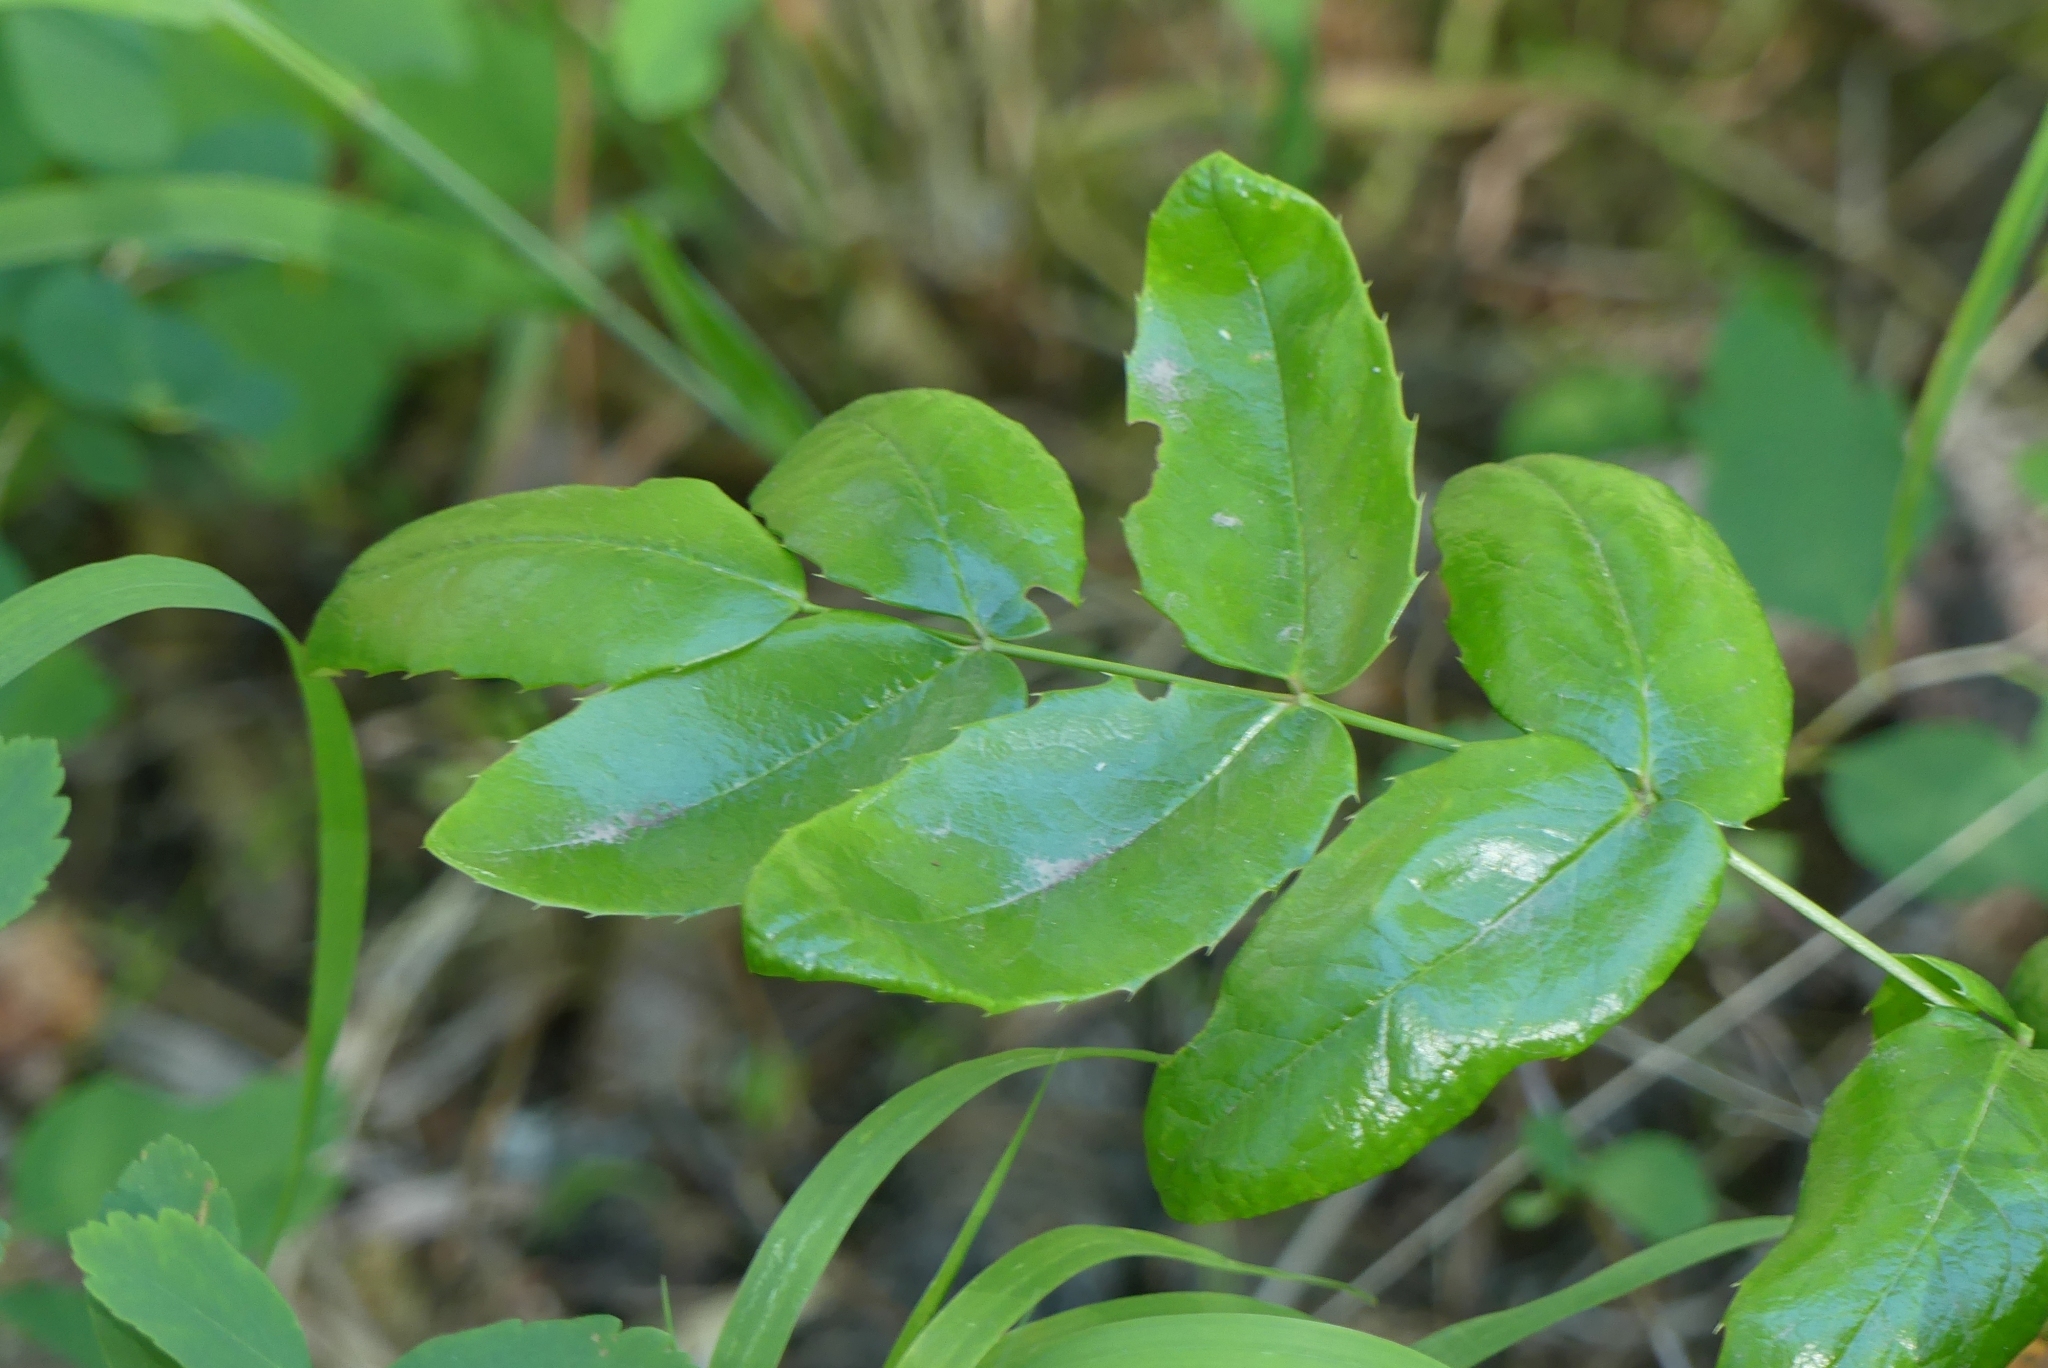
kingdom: Plantae
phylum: Tracheophyta
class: Magnoliopsida
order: Ranunculales
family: Berberidaceae
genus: Mahonia
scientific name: Mahonia aquifolium
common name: Oregon-grape
